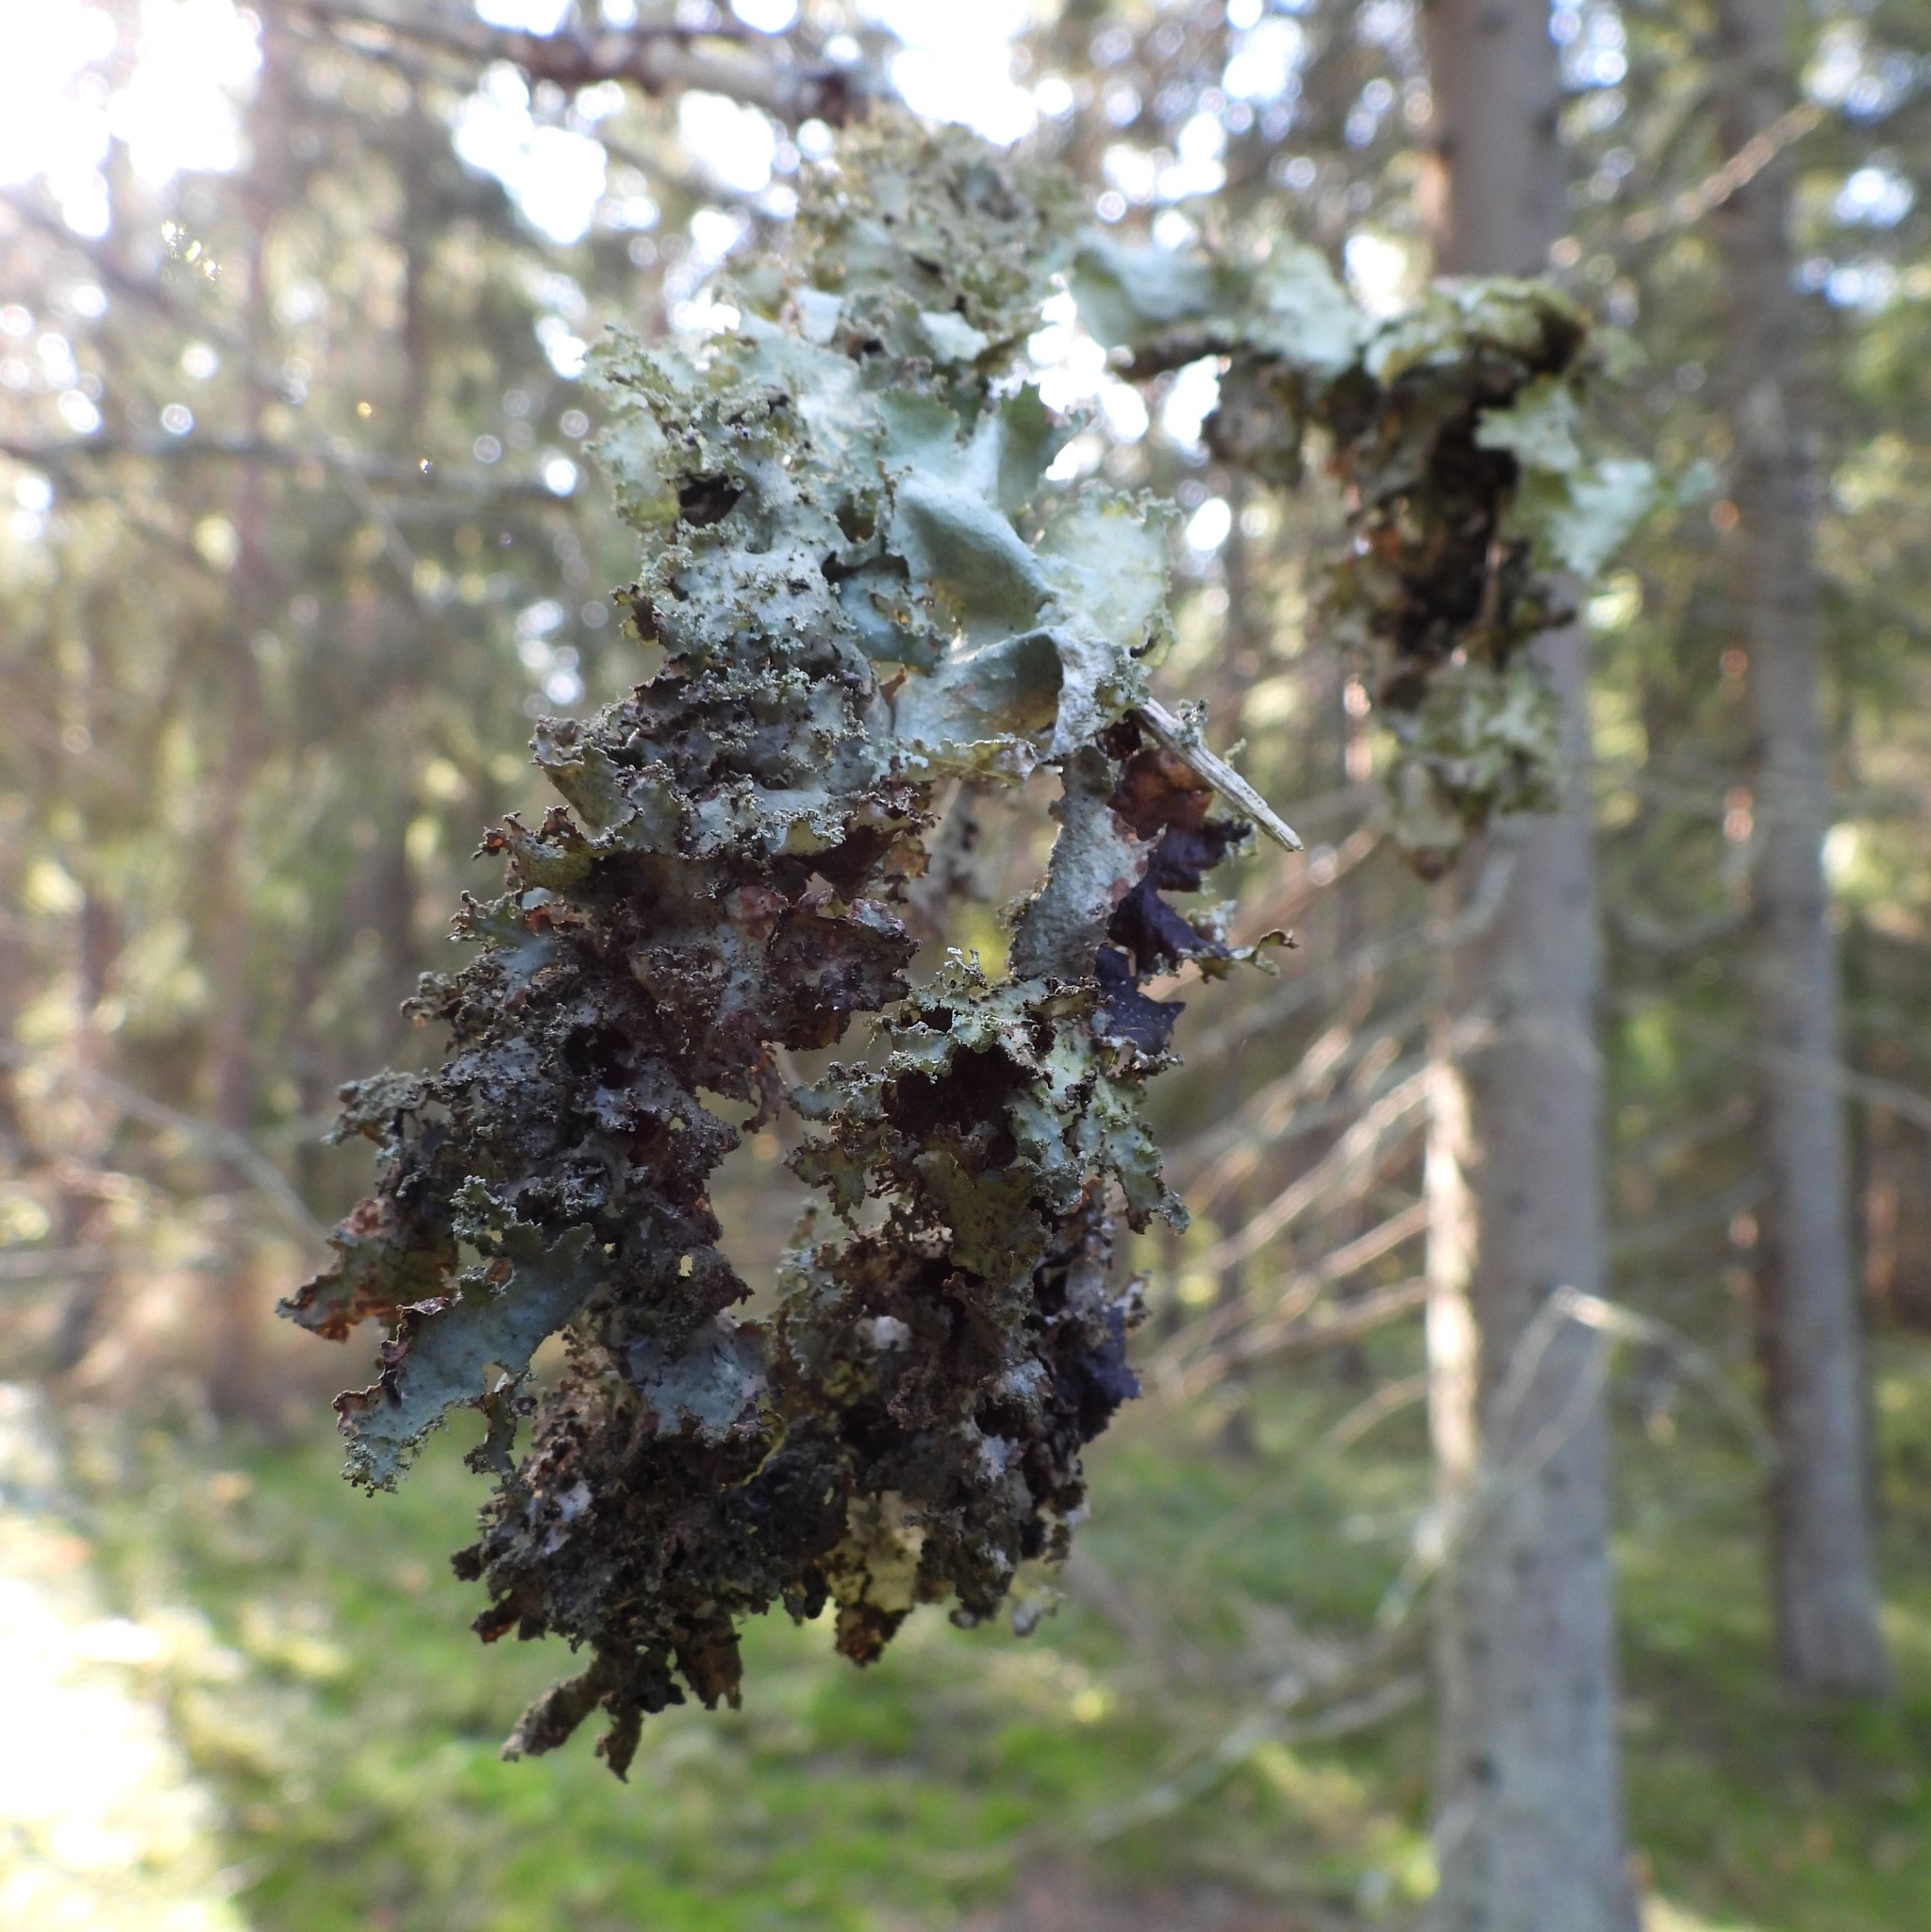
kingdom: Fungi
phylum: Ascomycota
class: Lecanoromycetes
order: Lecanorales
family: Parmeliaceae
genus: Platismatia
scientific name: Platismatia glauca
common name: Varied rag lichen
